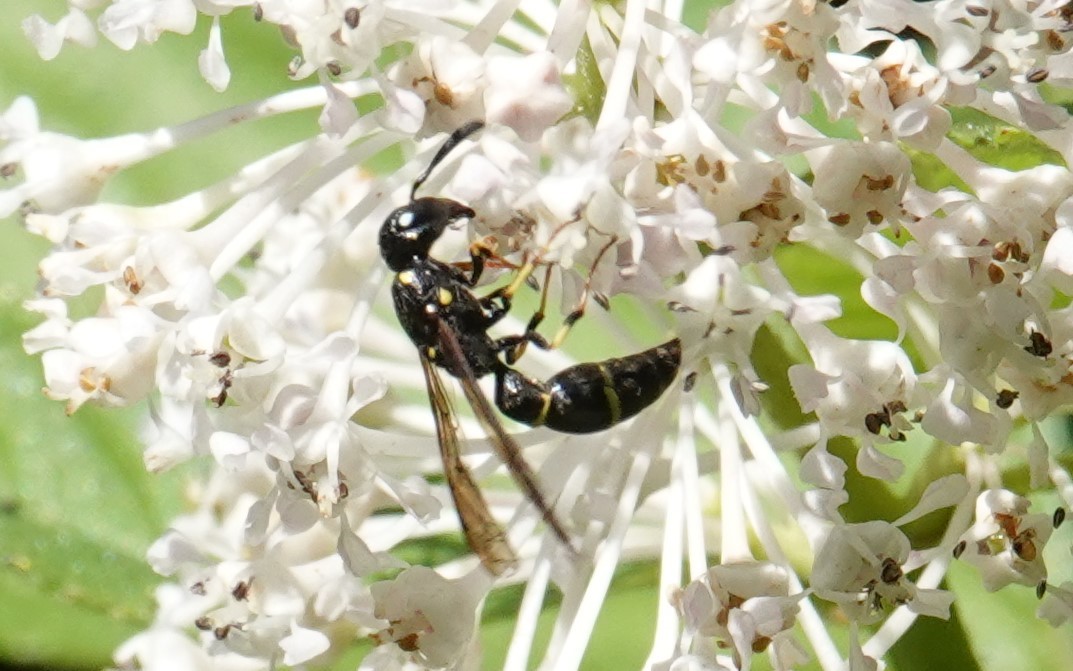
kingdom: Animalia
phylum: Arthropoda
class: Insecta
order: Hymenoptera
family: Eumenidae
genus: Symmorphus
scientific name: Symmorphus
